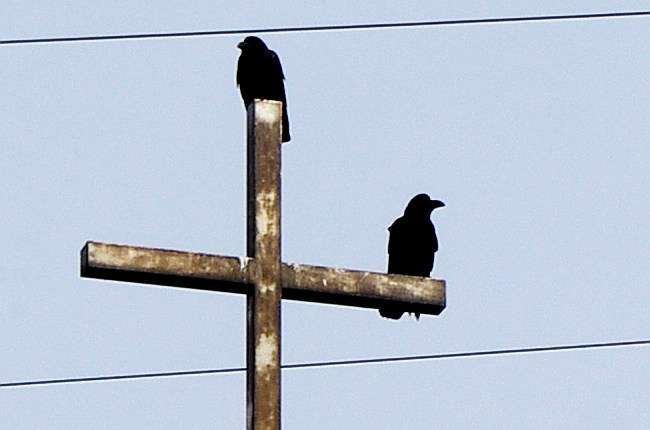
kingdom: Animalia
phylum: Chordata
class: Aves
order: Passeriformes
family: Corvidae
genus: Corvus
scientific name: Corvus macrorhynchos
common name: Large-billed crow
